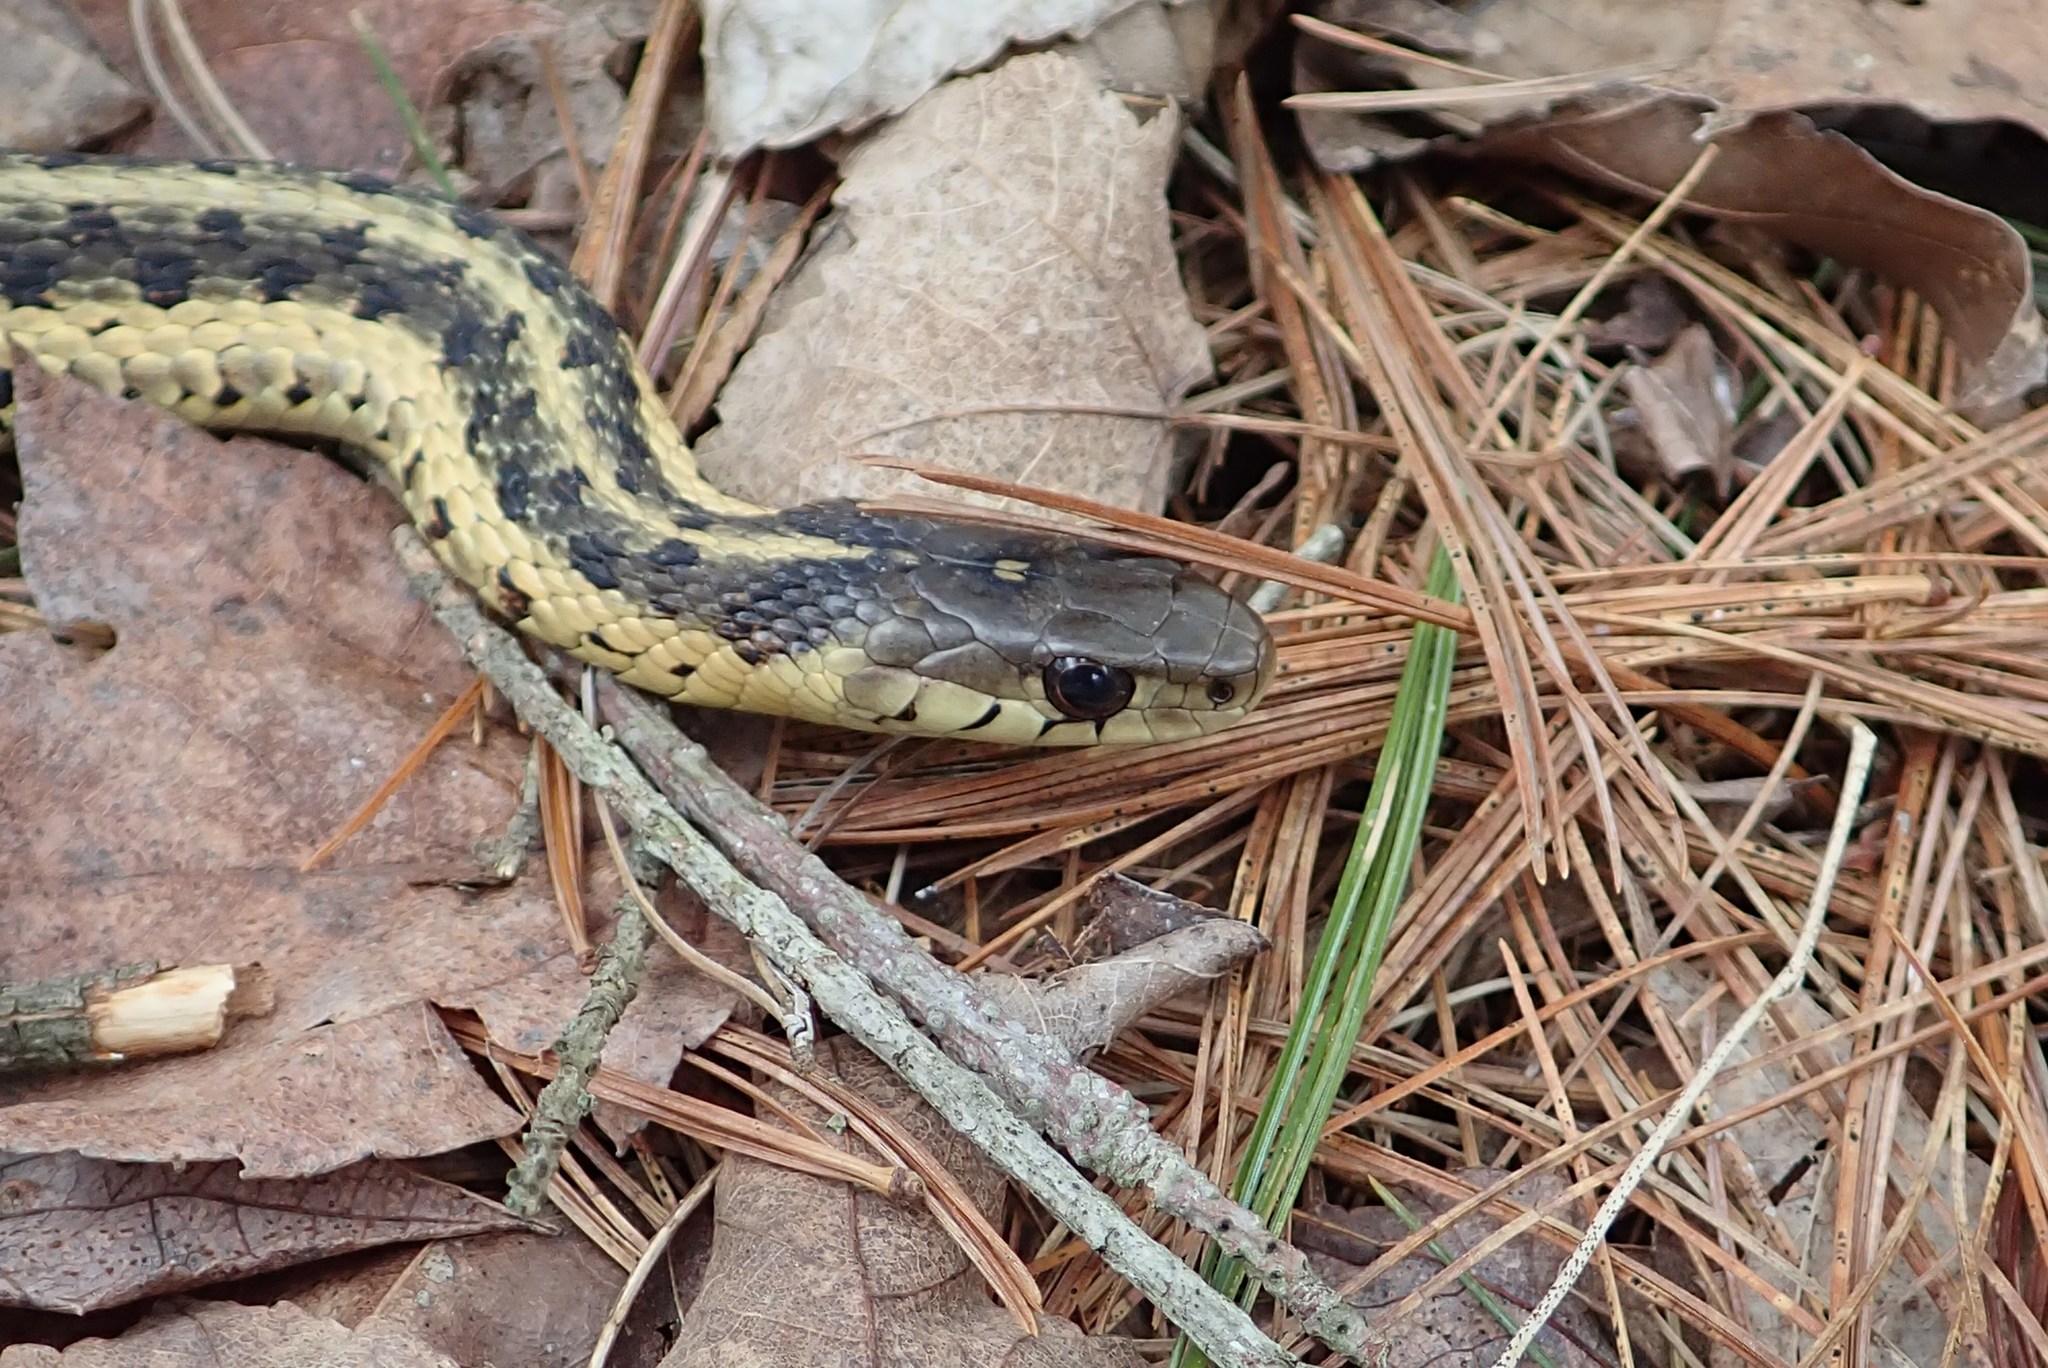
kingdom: Animalia
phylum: Chordata
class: Squamata
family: Colubridae
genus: Thamnophis
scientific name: Thamnophis sirtalis
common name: Common garter snake
